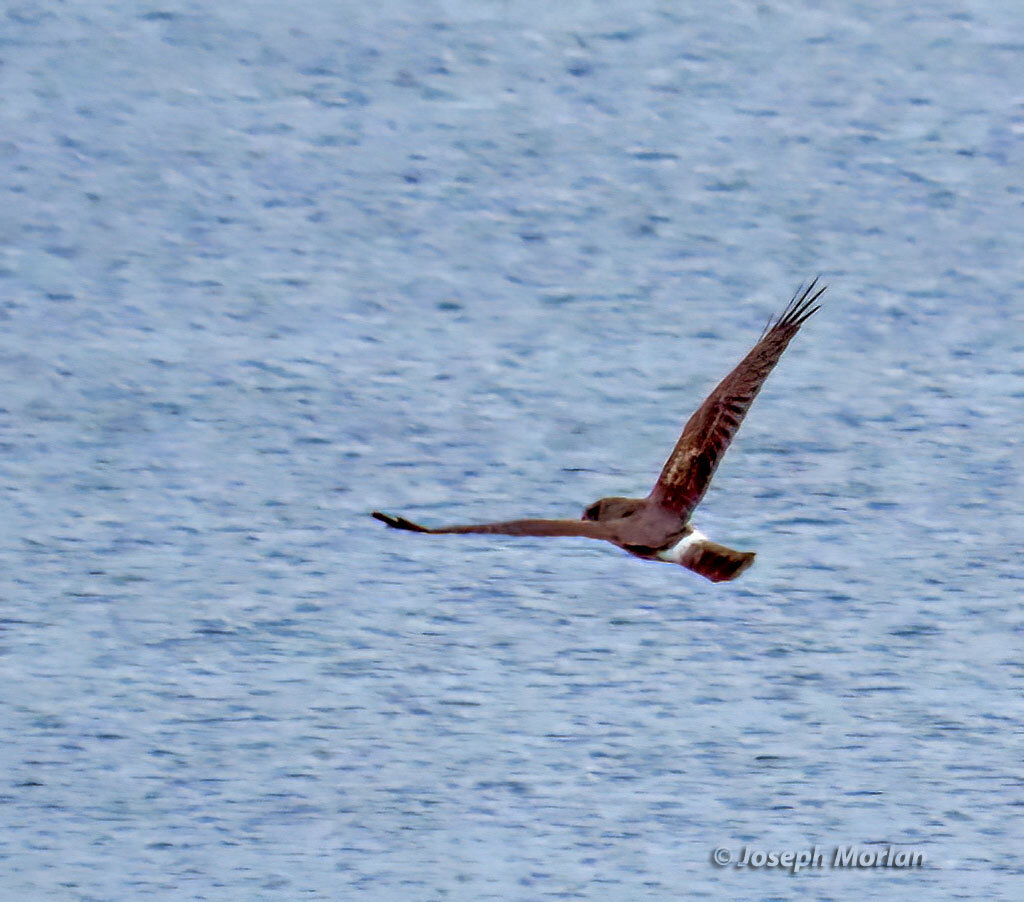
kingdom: Animalia
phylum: Chordata
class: Aves
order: Accipitriformes
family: Accipitridae
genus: Circus
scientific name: Circus cyaneus
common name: Hen harrier
